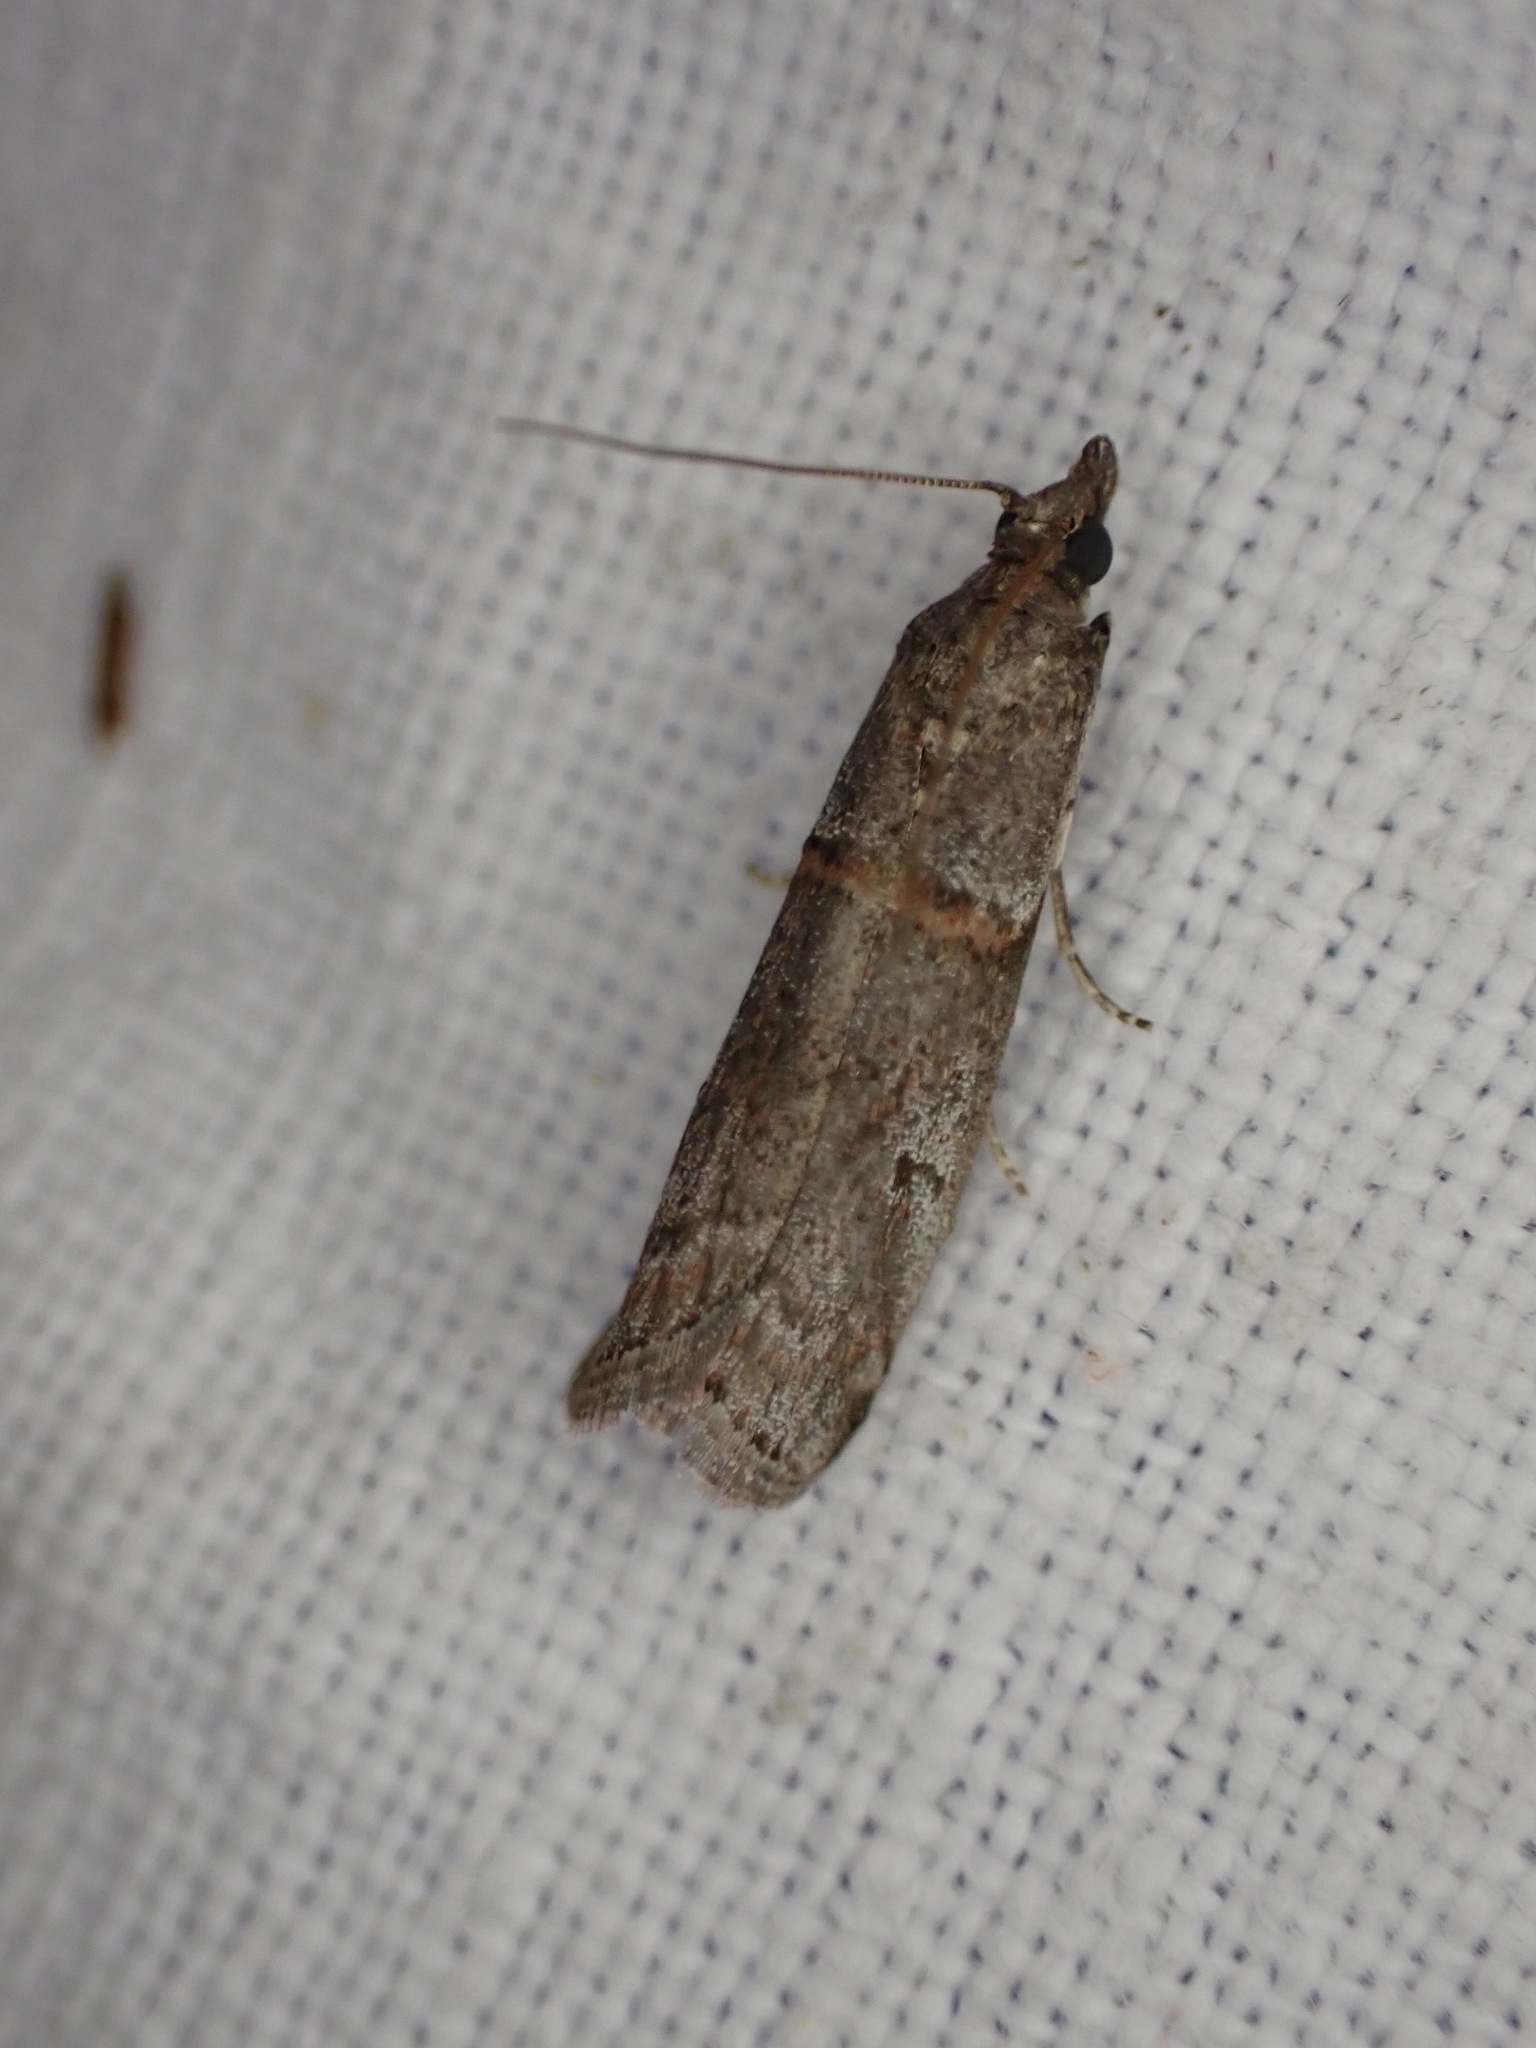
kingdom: Animalia
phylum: Arthropoda
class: Insecta
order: Lepidoptera
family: Pyralidae
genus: Acrobasis
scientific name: Acrobasis obliqua
